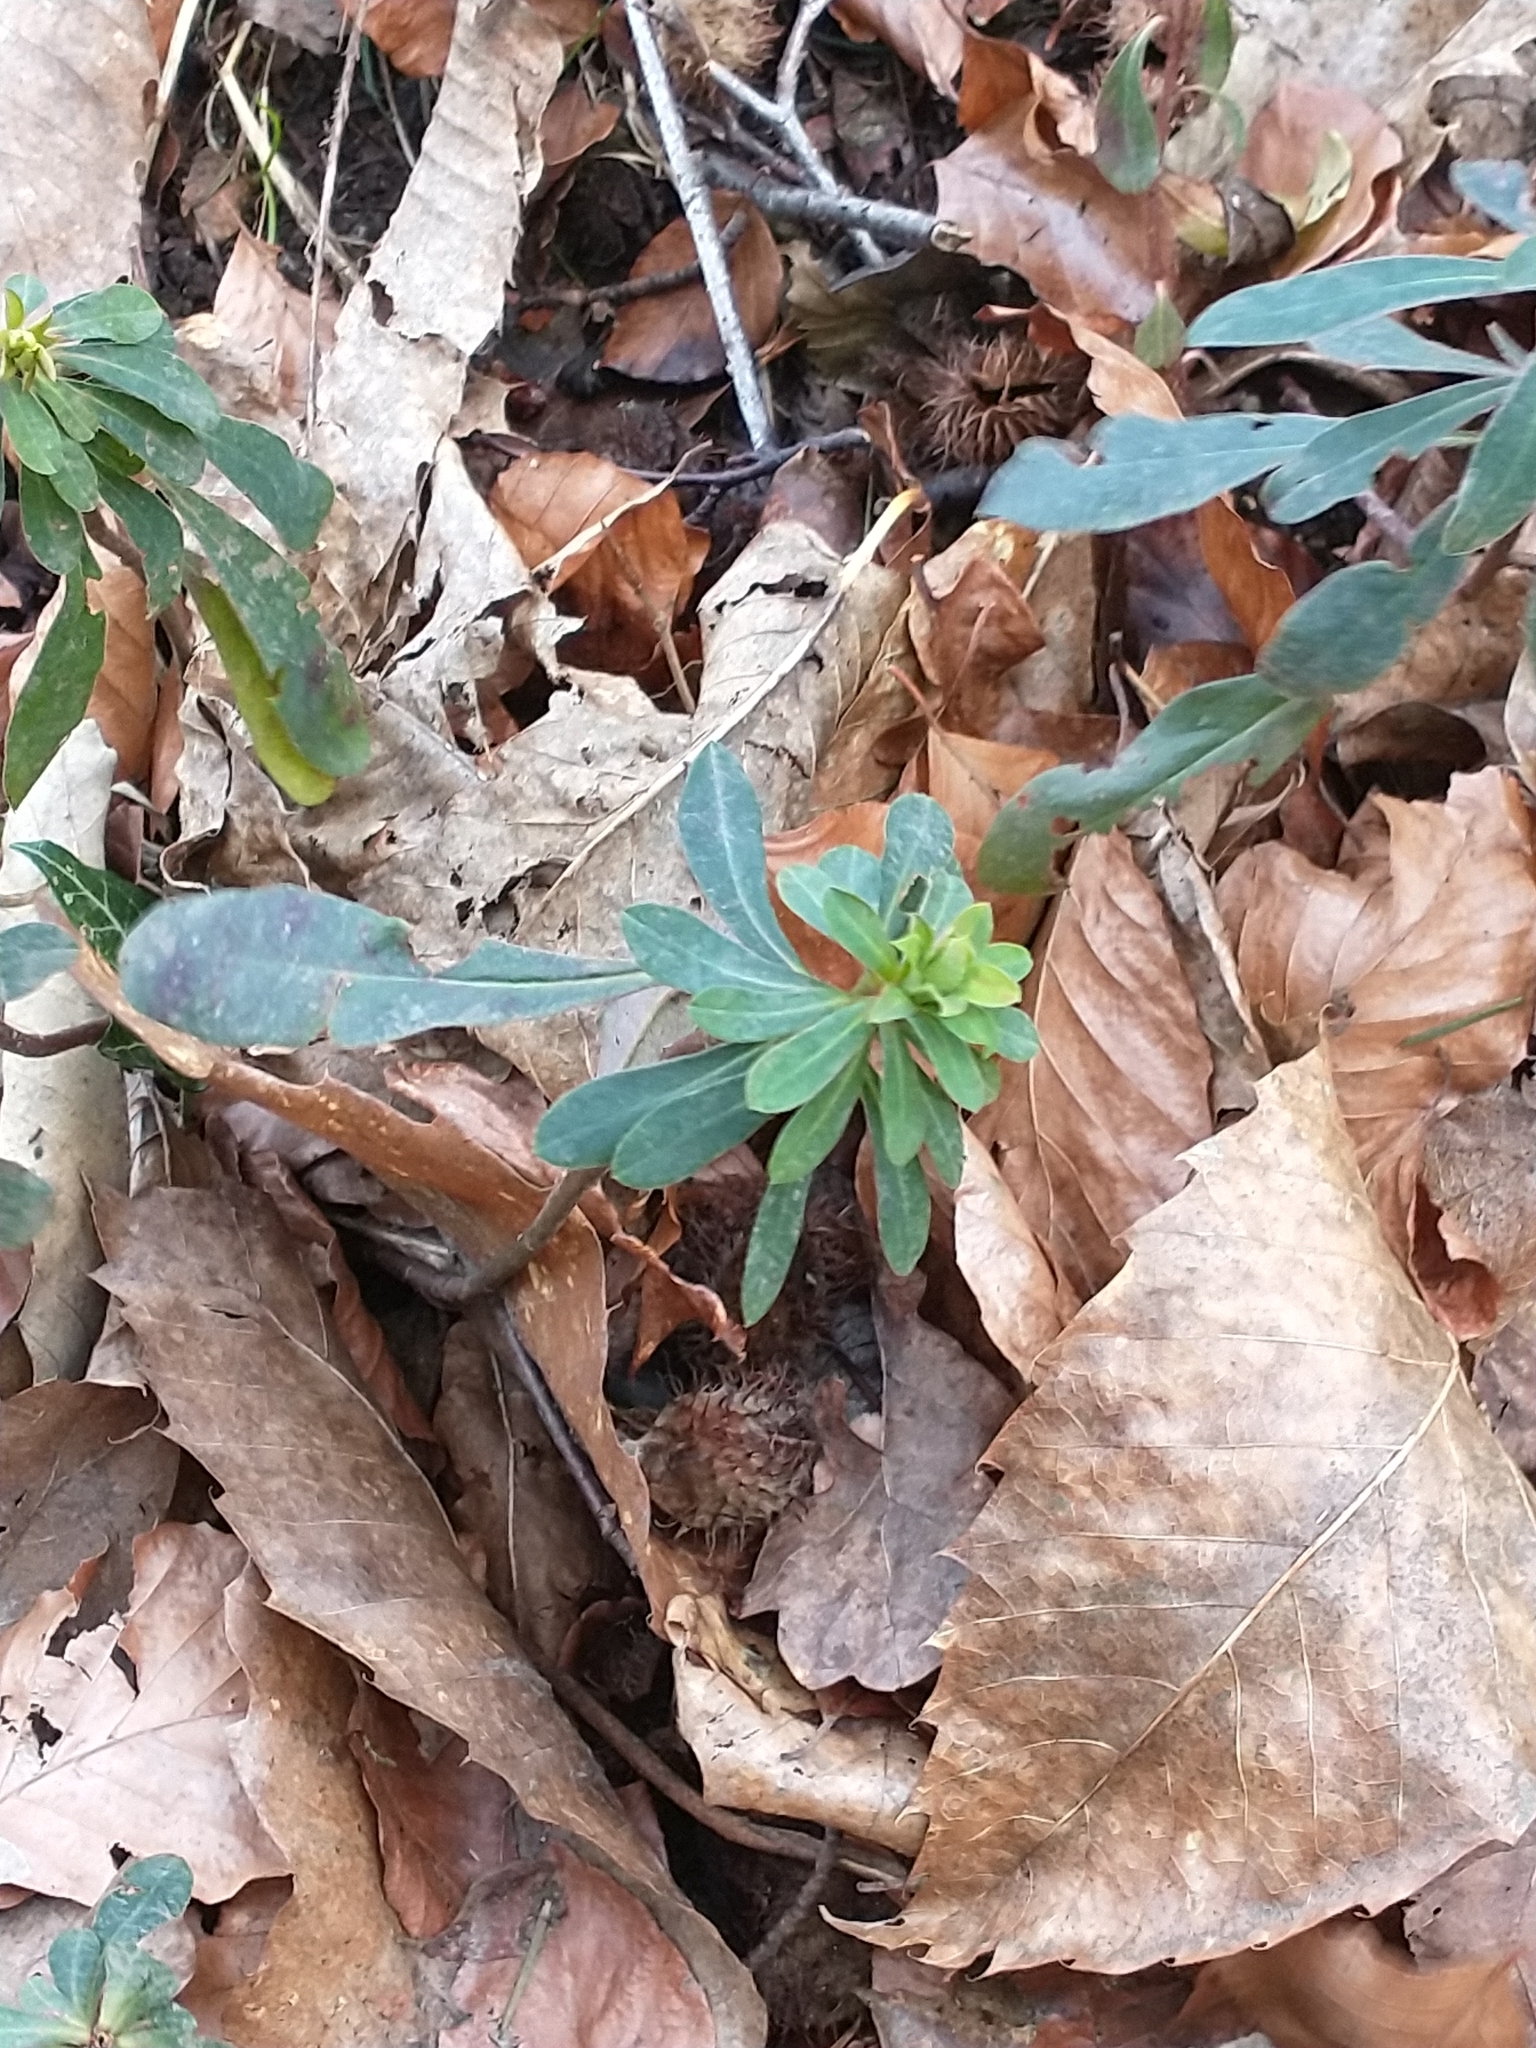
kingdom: Plantae
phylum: Tracheophyta
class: Magnoliopsida
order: Malpighiales
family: Euphorbiaceae
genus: Euphorbia
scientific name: Euphorbia amygdaloides
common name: Wood spurge
